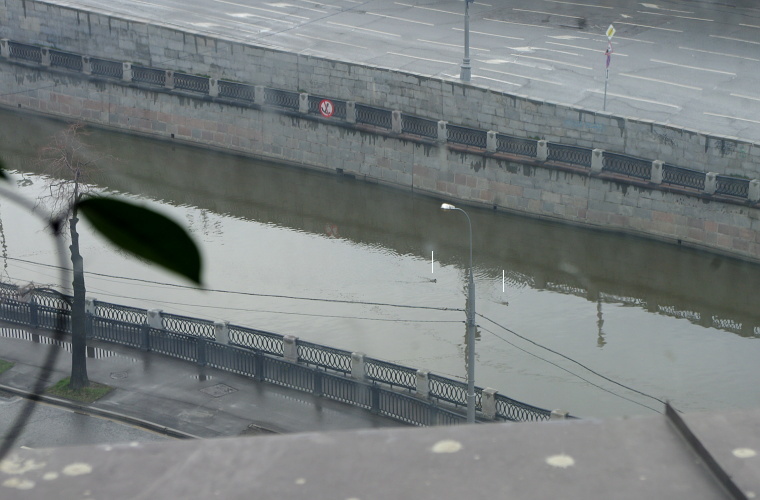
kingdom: Animalia
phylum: Chordata
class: Aves
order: Anseriformes
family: Anatidae
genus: Anas
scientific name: Anas platyrhynchos
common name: Mallard
